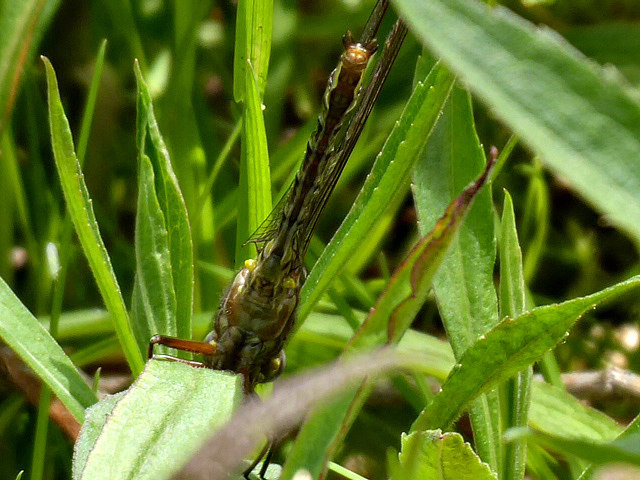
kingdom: Animalia
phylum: Arthropoda
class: Insecta
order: Odonata
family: Gomphidae
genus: Phanogomphus
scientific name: Phanogomphus lividus
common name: Ashy clubtail
